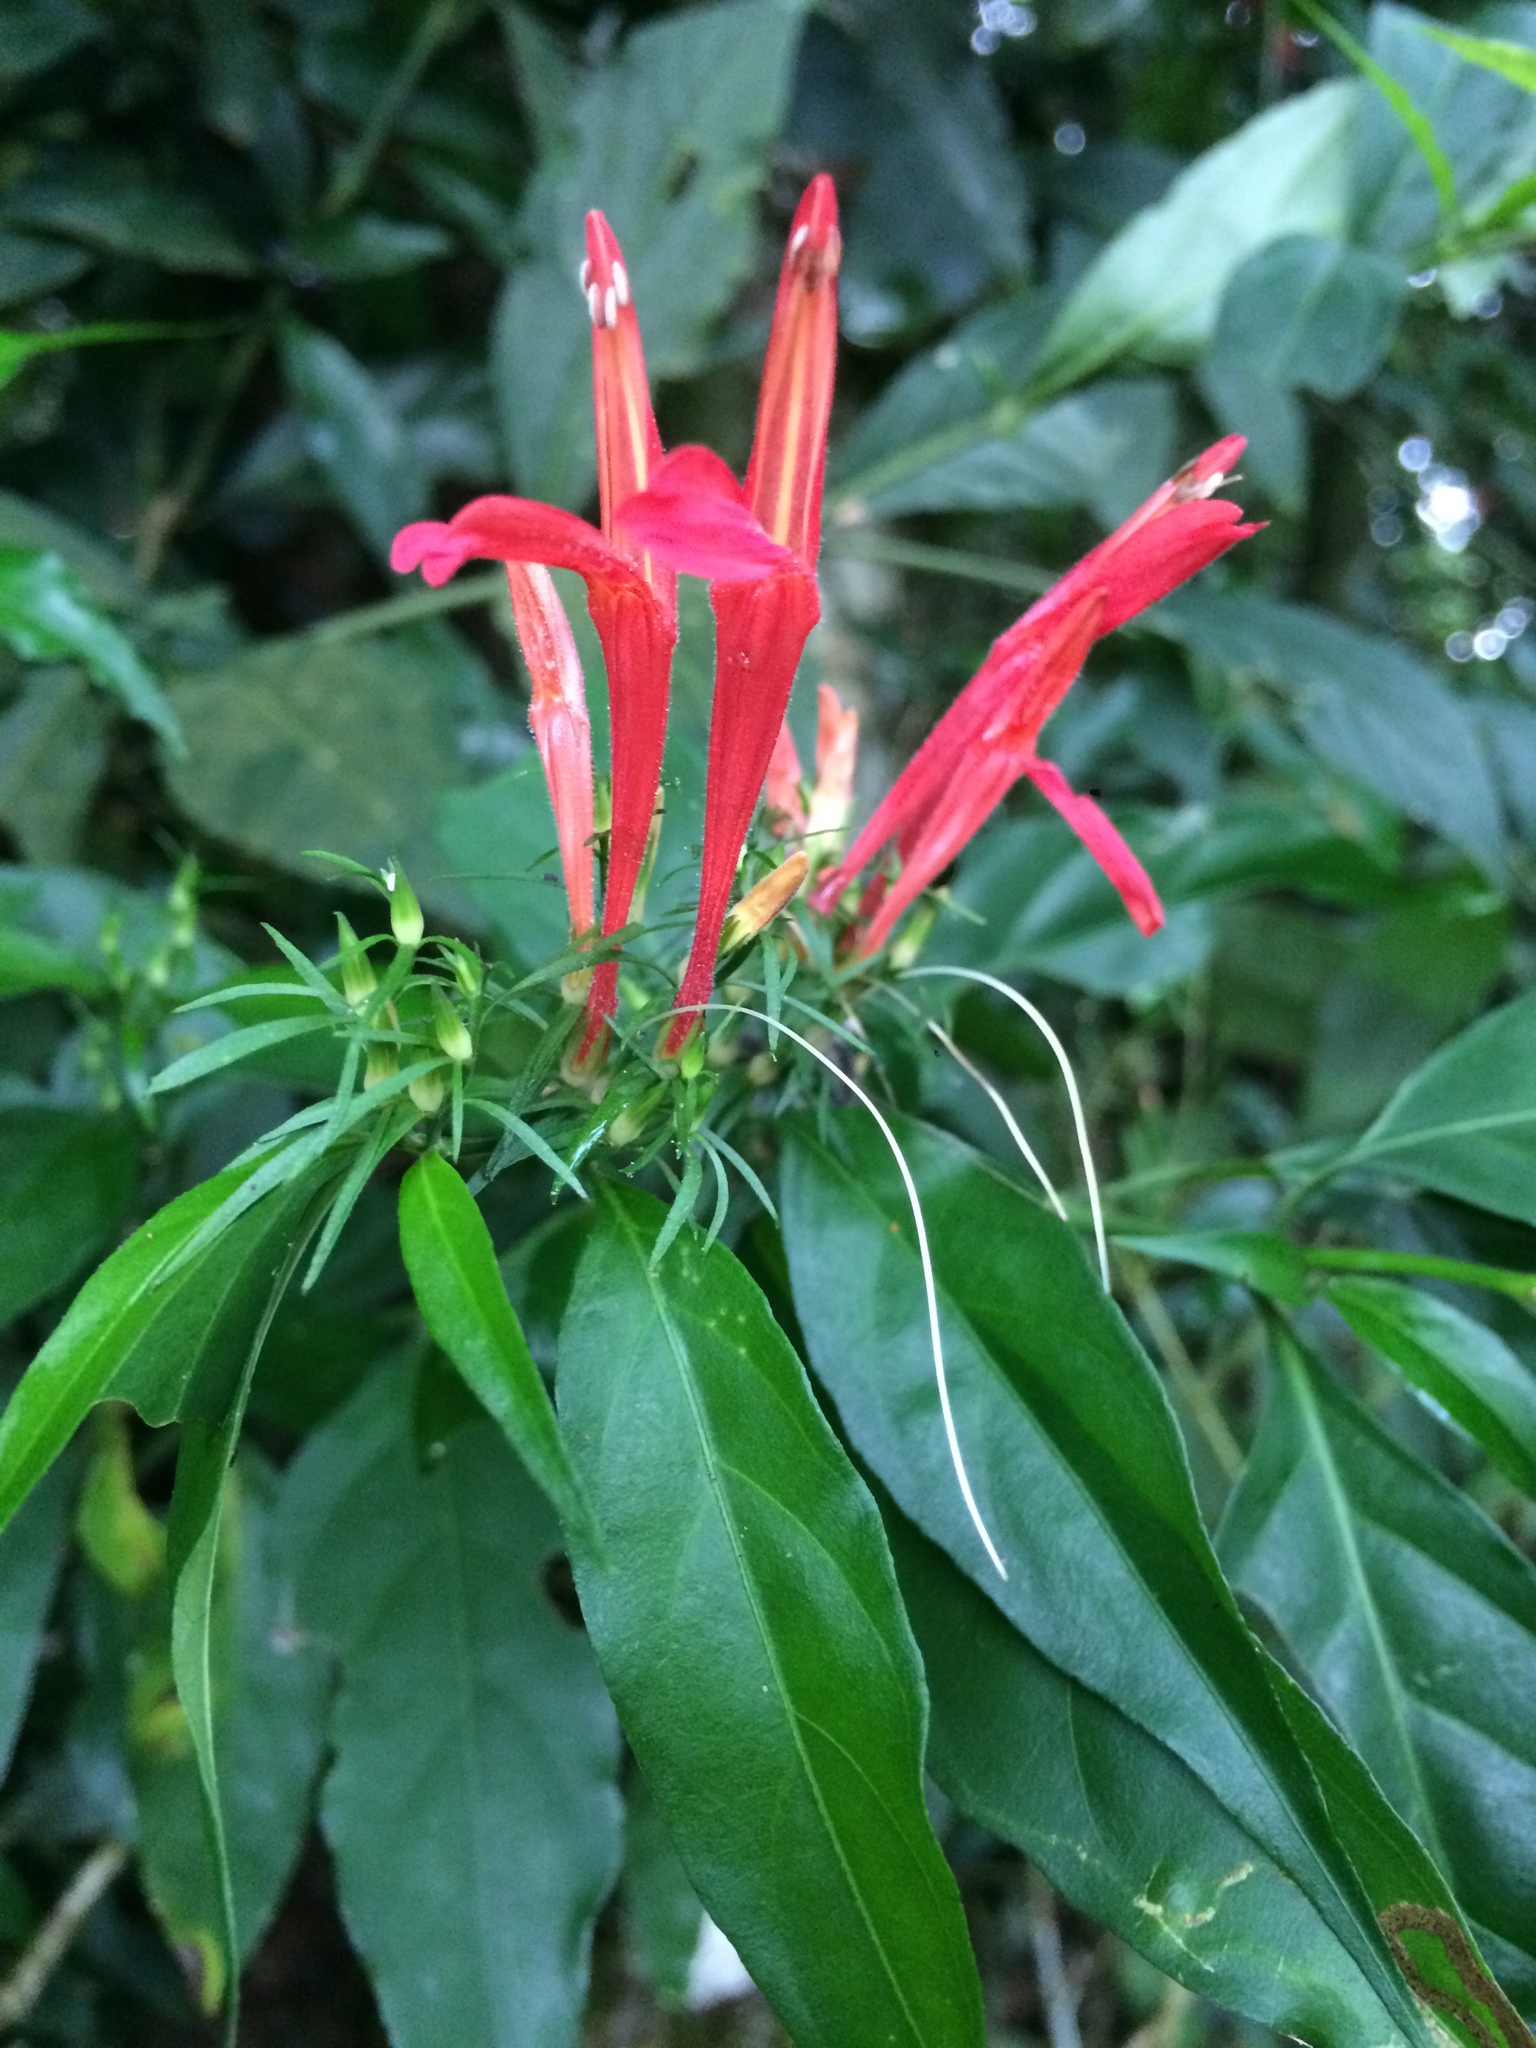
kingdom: Plantae
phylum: Tracheophyta
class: Magnoliopsida
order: Lamiales
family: Acanthaceae
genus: Justicia
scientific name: Justicia brasiliana
